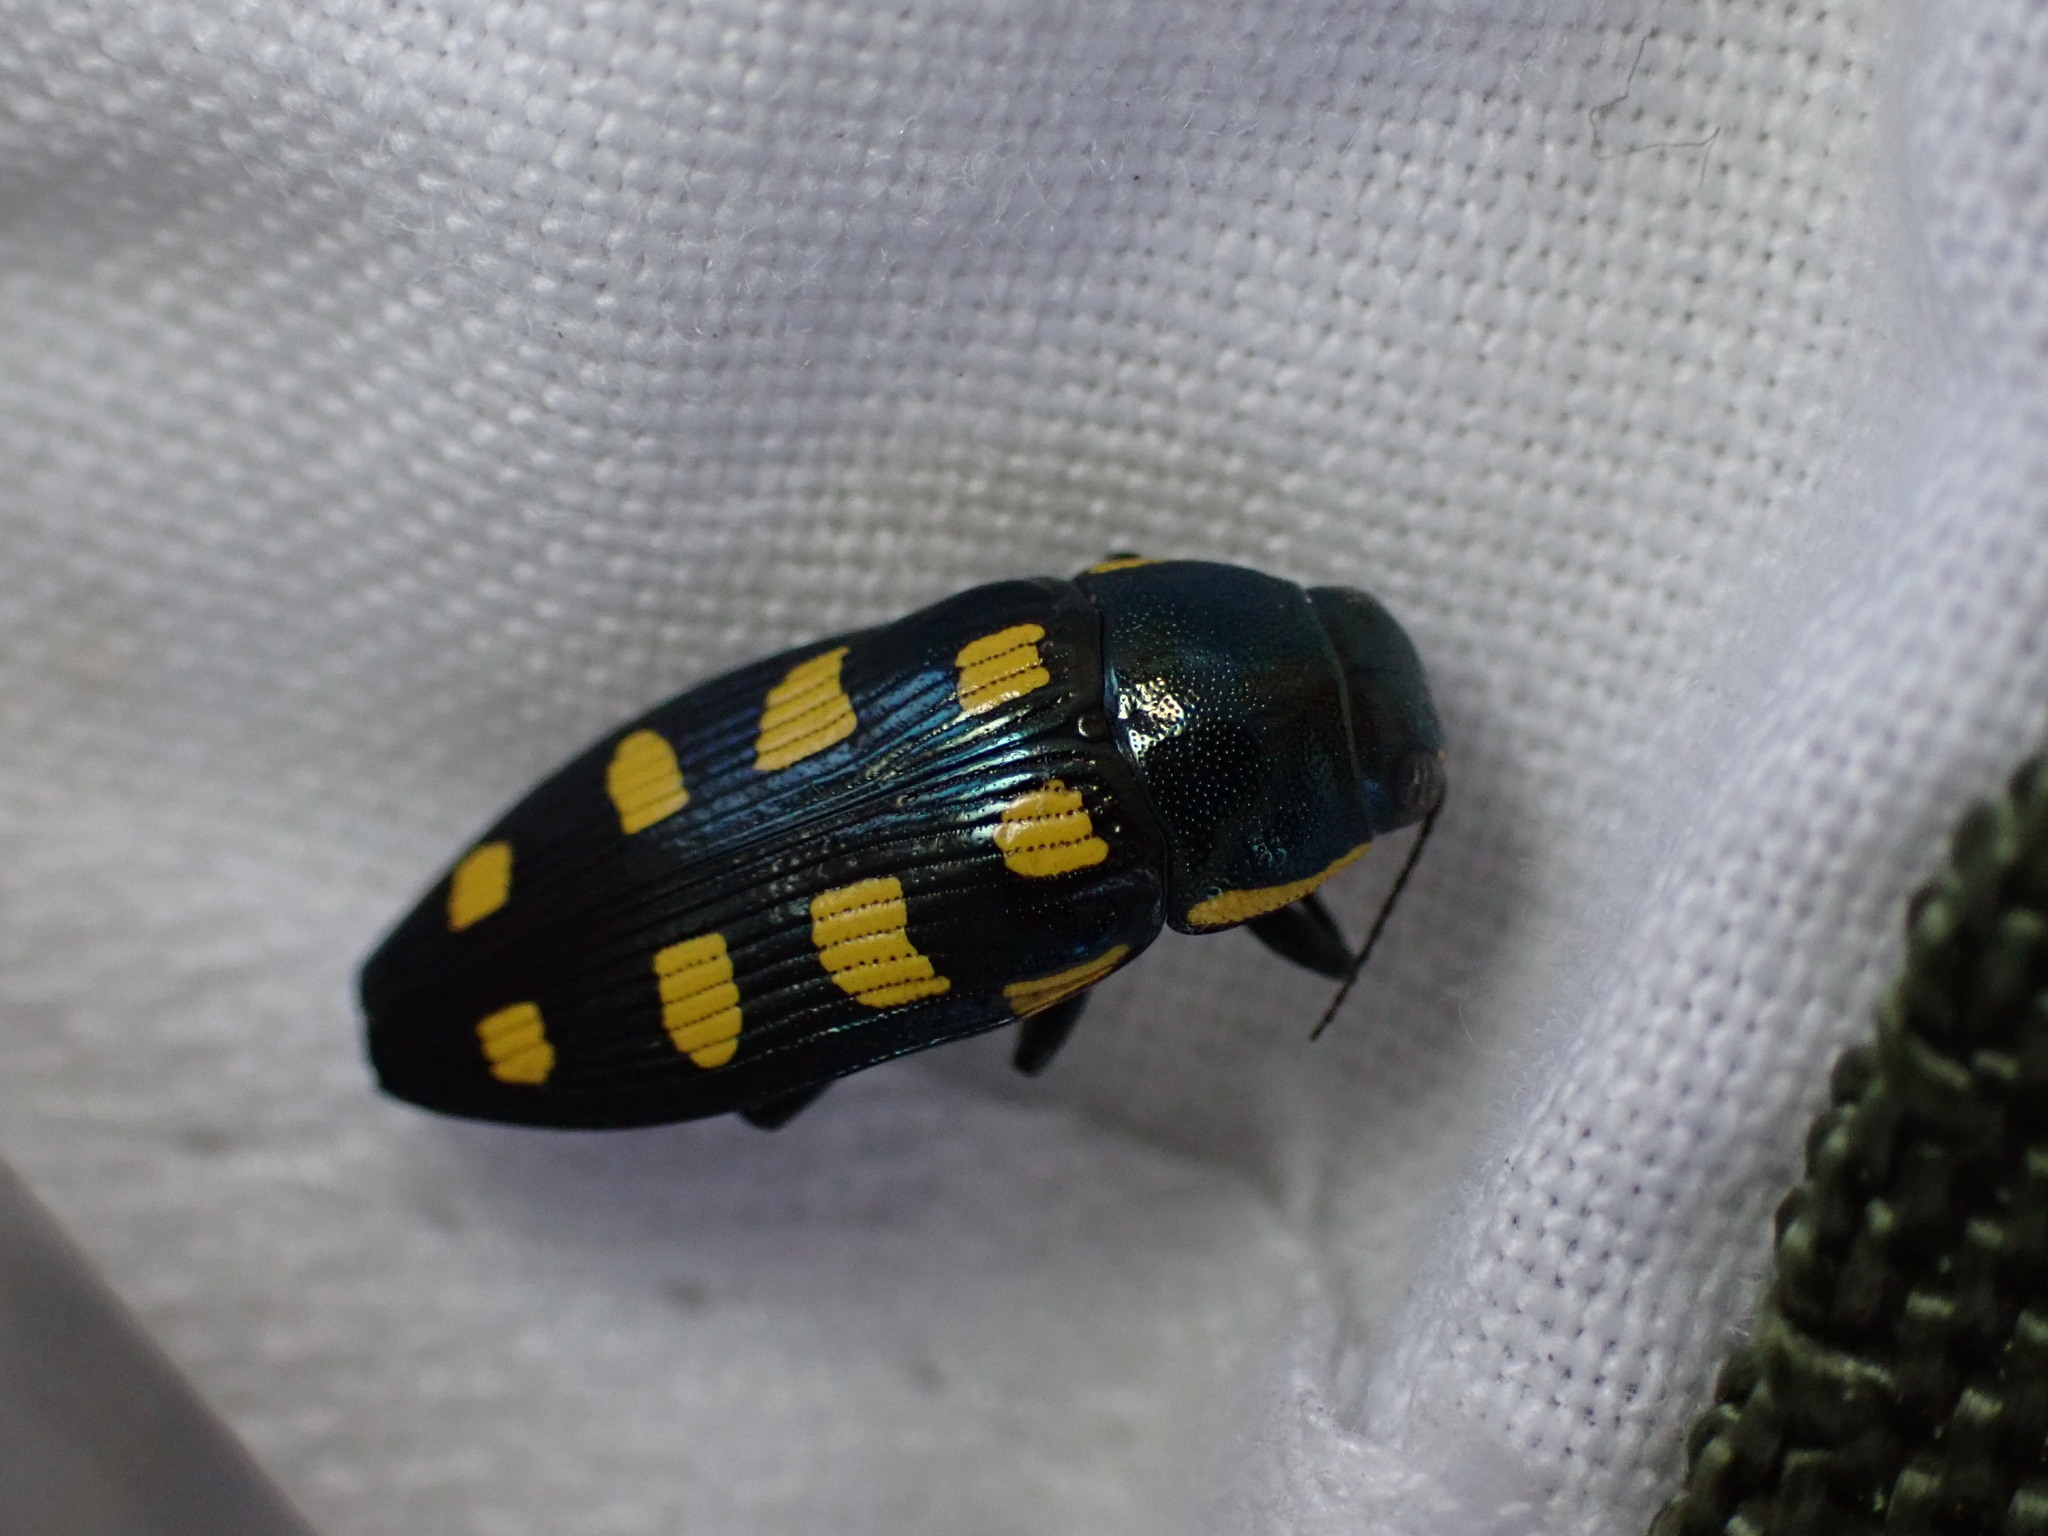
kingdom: Animalia
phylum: Arthropoda
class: Insecta
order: Coleoptera
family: Buprestidae
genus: Buprestis
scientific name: Buprestis octoguttata
